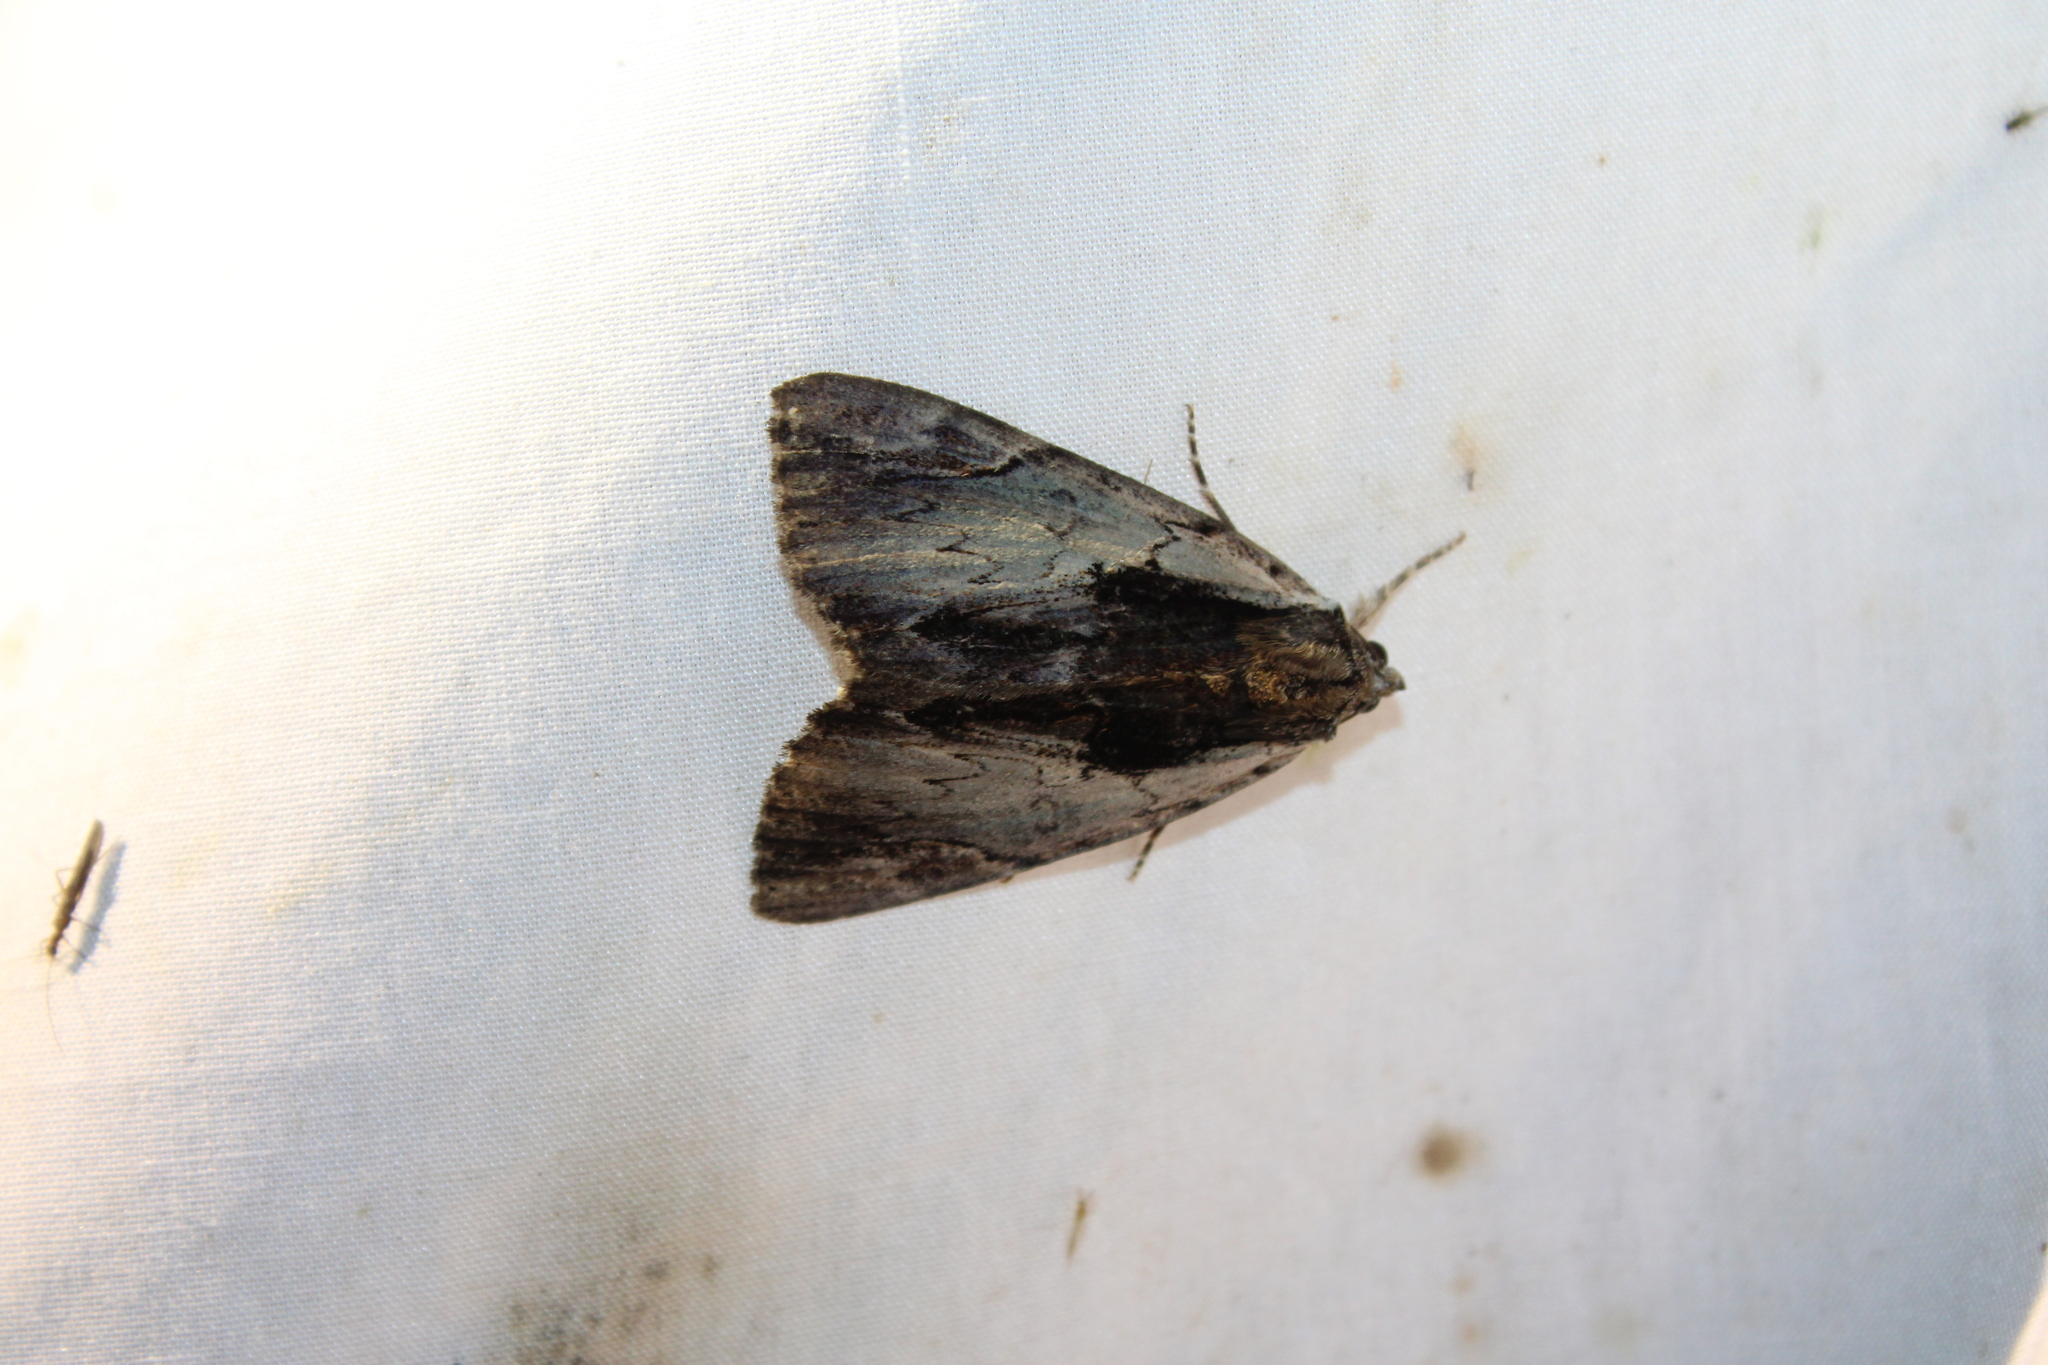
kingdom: Animalia
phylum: Arthropoda
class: Insecta
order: Lepidoptera
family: Erebidae
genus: Catocala
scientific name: Catocala ultronia
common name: Ultronia underwing
